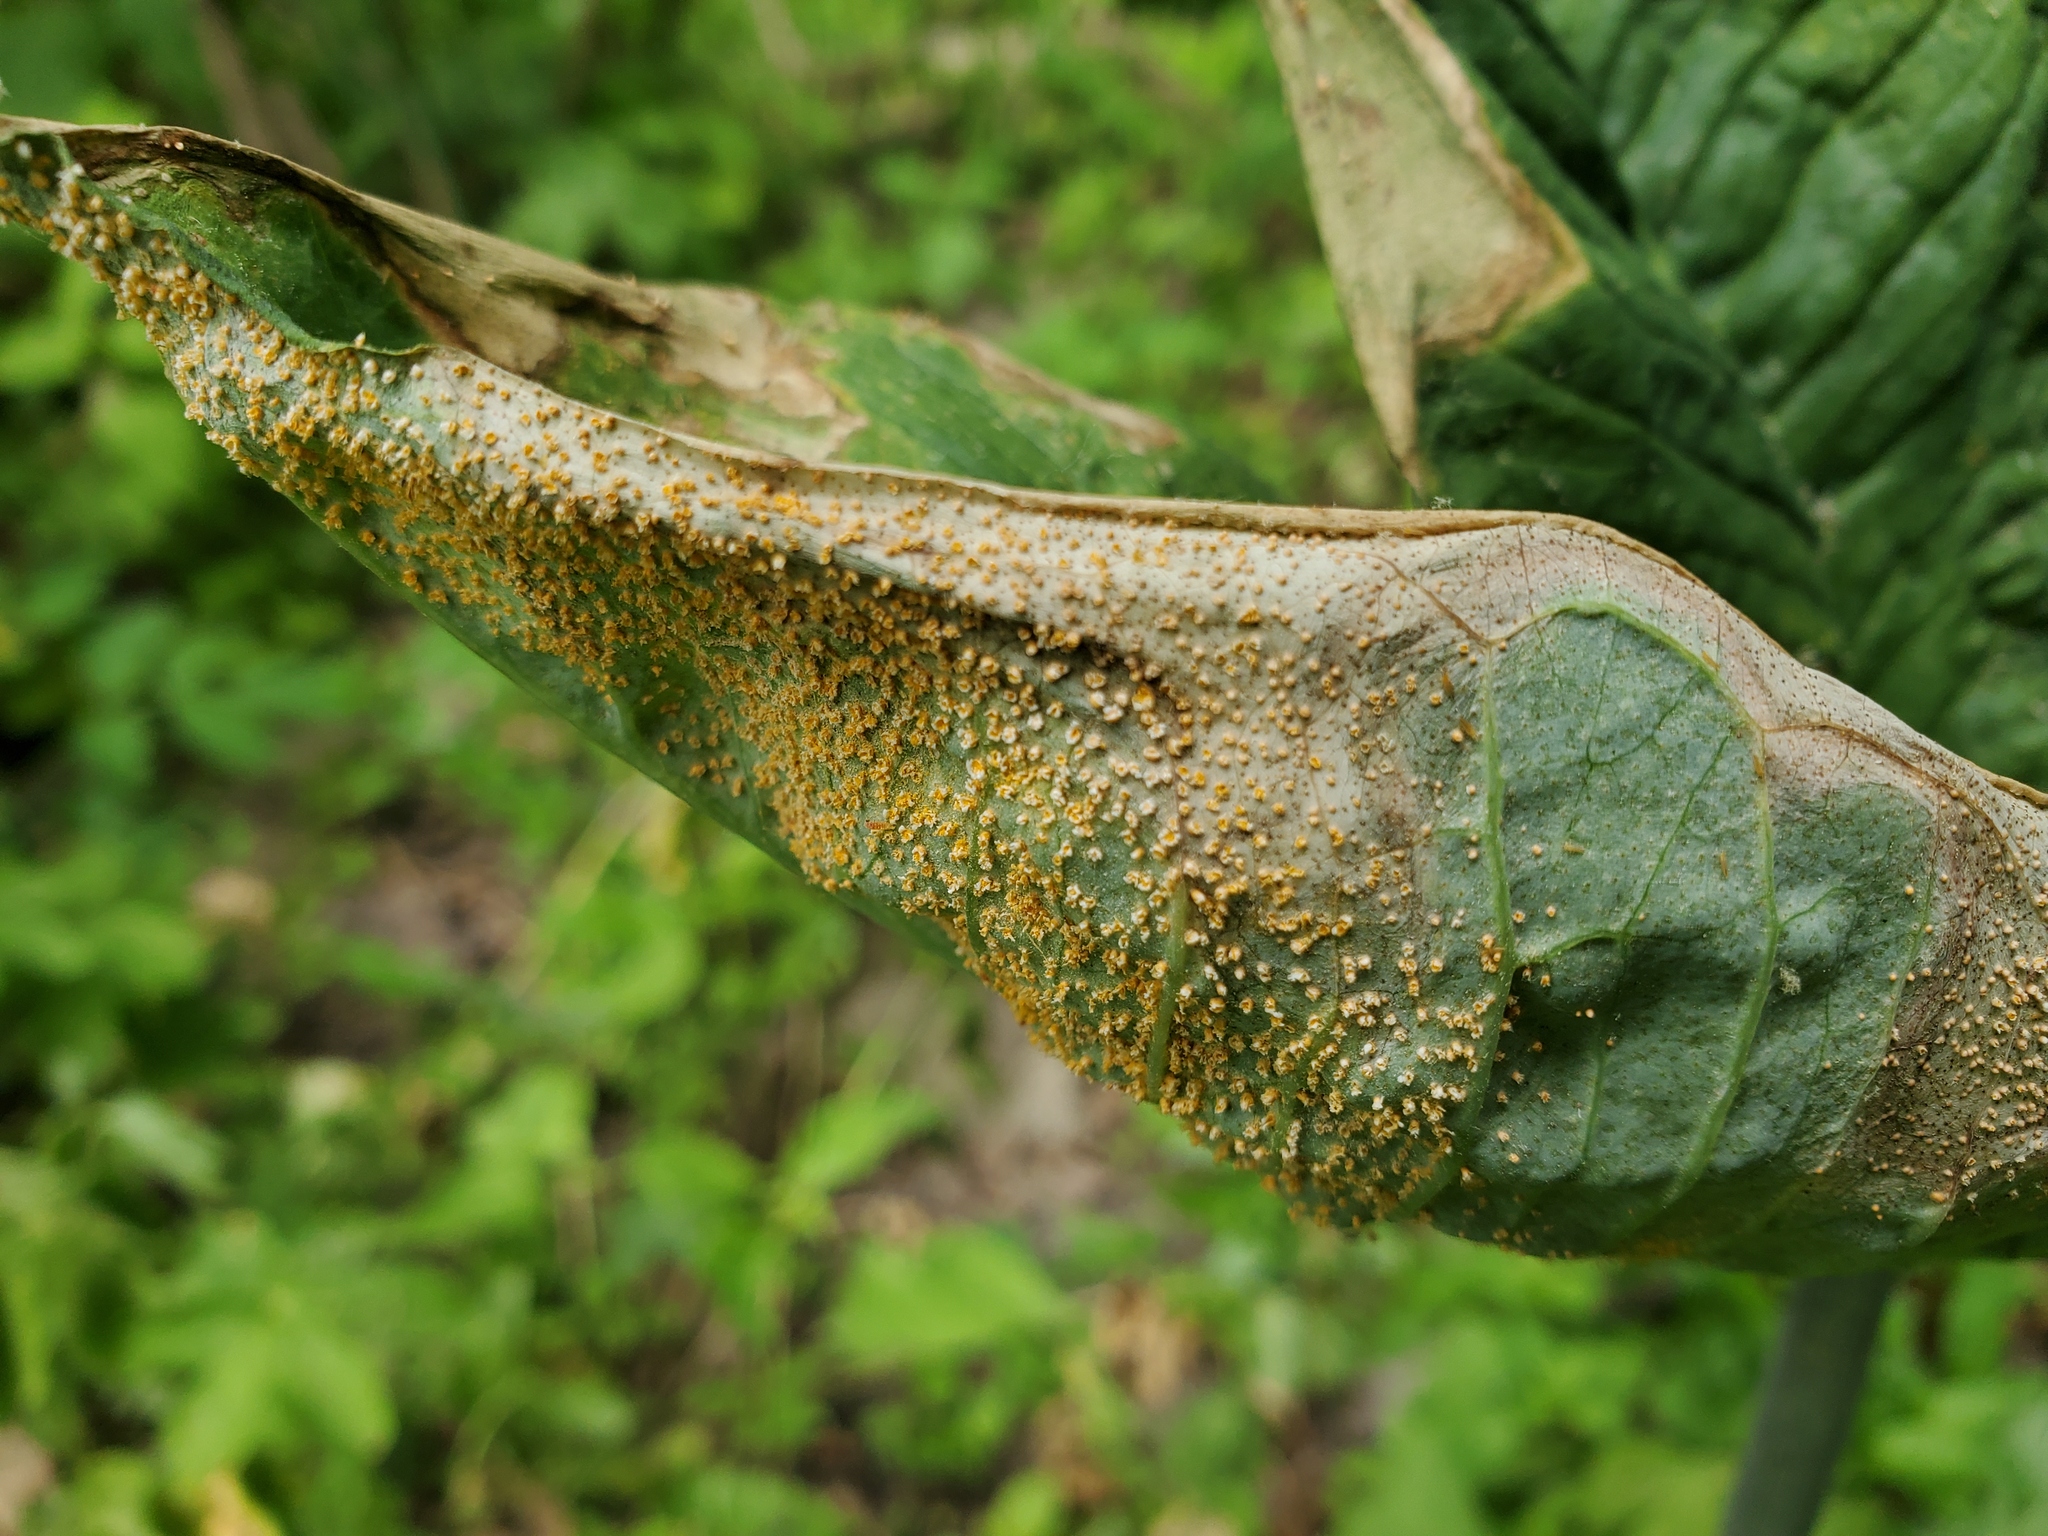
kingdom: Fungi
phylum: Basidiomycota
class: Pucciniomycetes
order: Pucciniales
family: Pucciniaceae
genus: Uromyces
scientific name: Uromyces ari-triphylli
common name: Jack-in-the-pulpit rust
